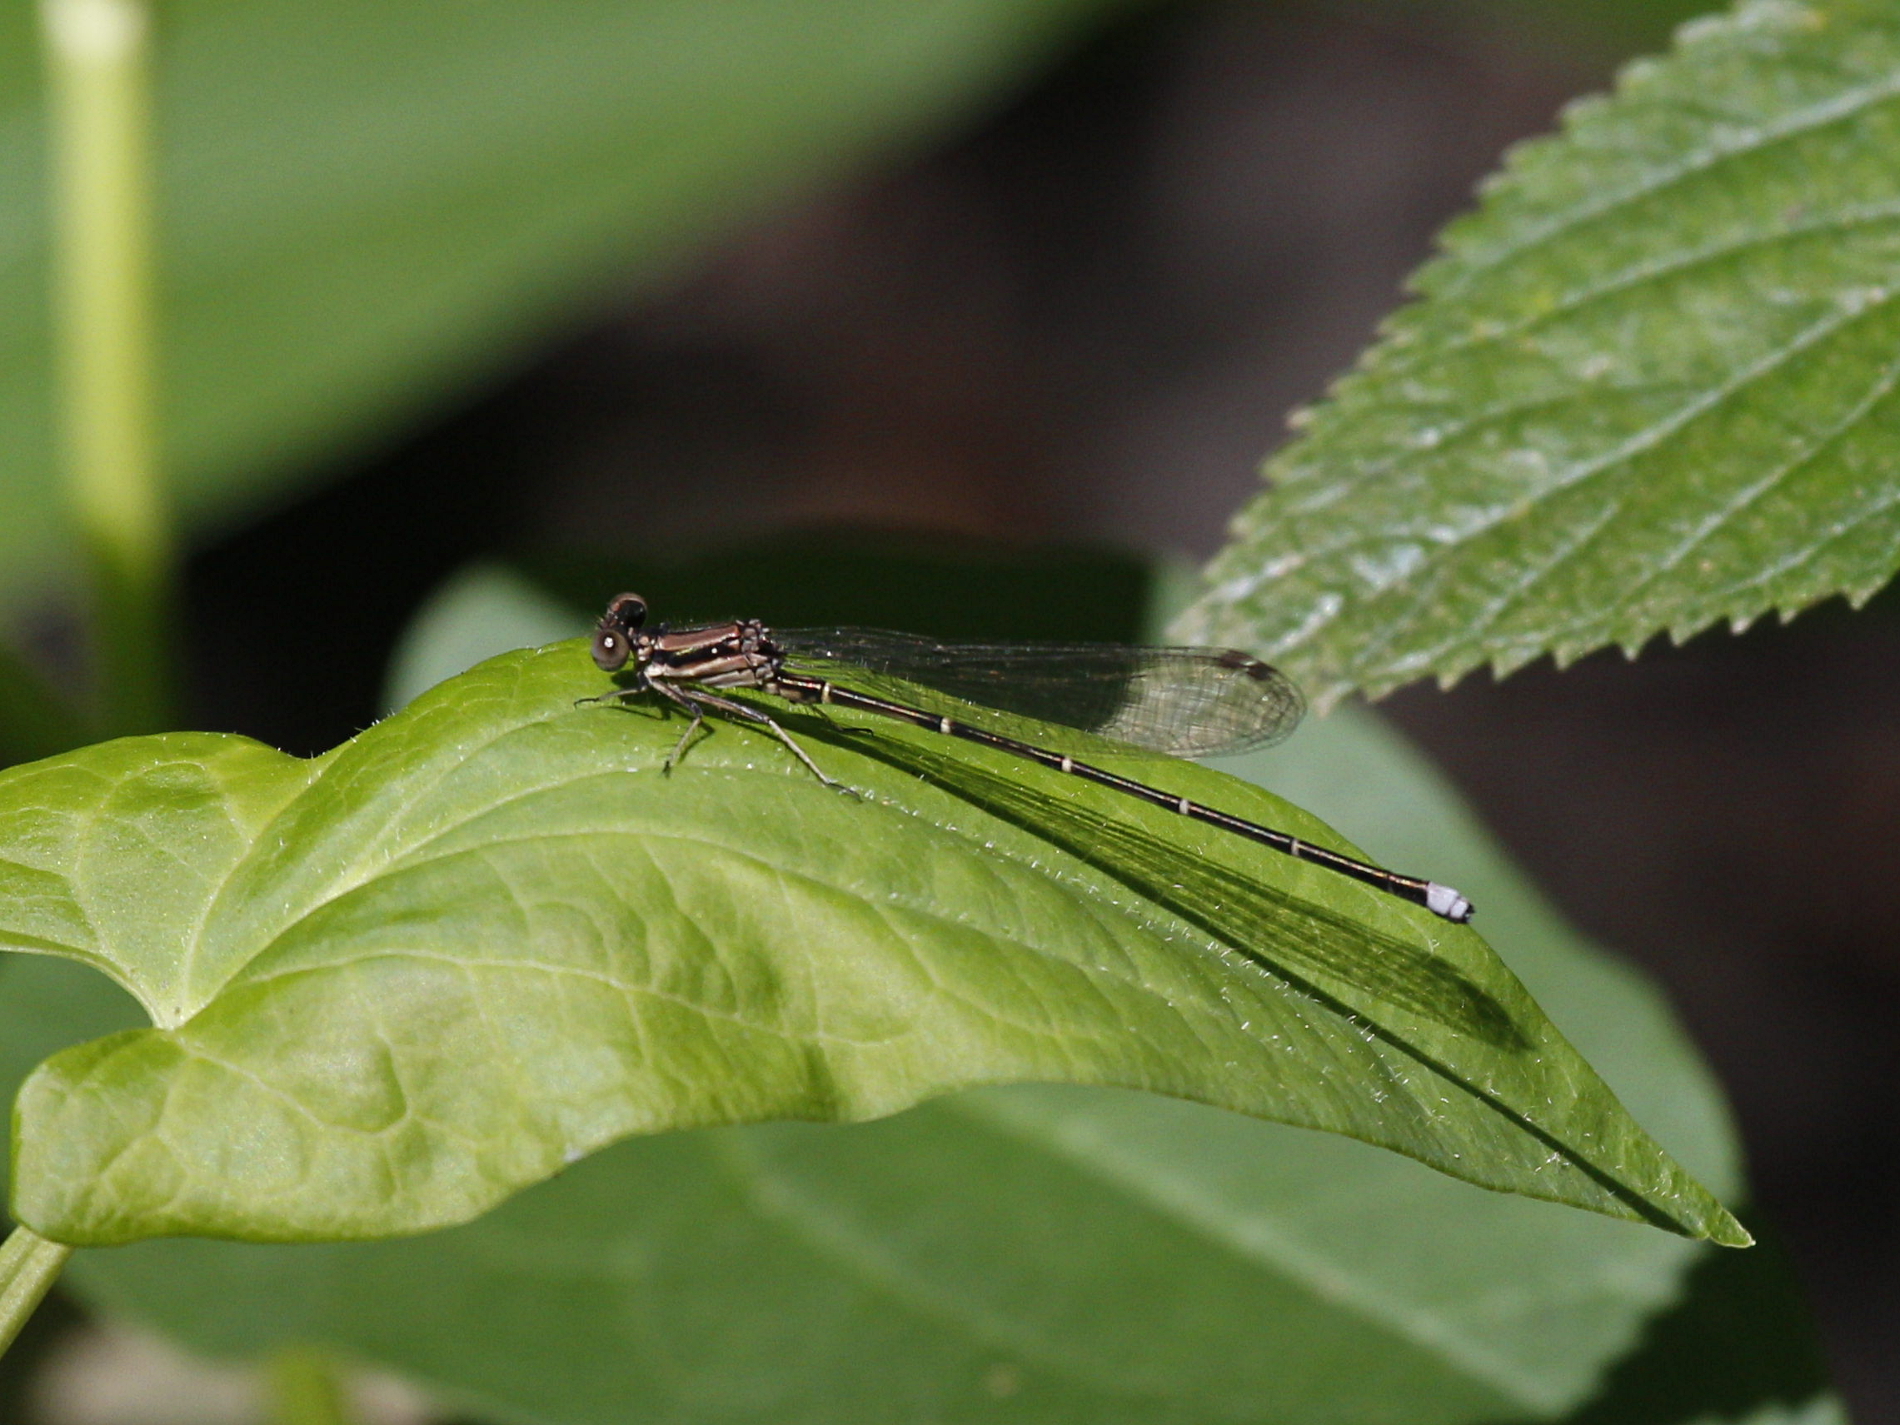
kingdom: Animalia
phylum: Arthropoda
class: Insecta
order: Odonata
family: Coenagrionidae
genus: Argia
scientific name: Argia tibialis
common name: Blue-tipped dancer
